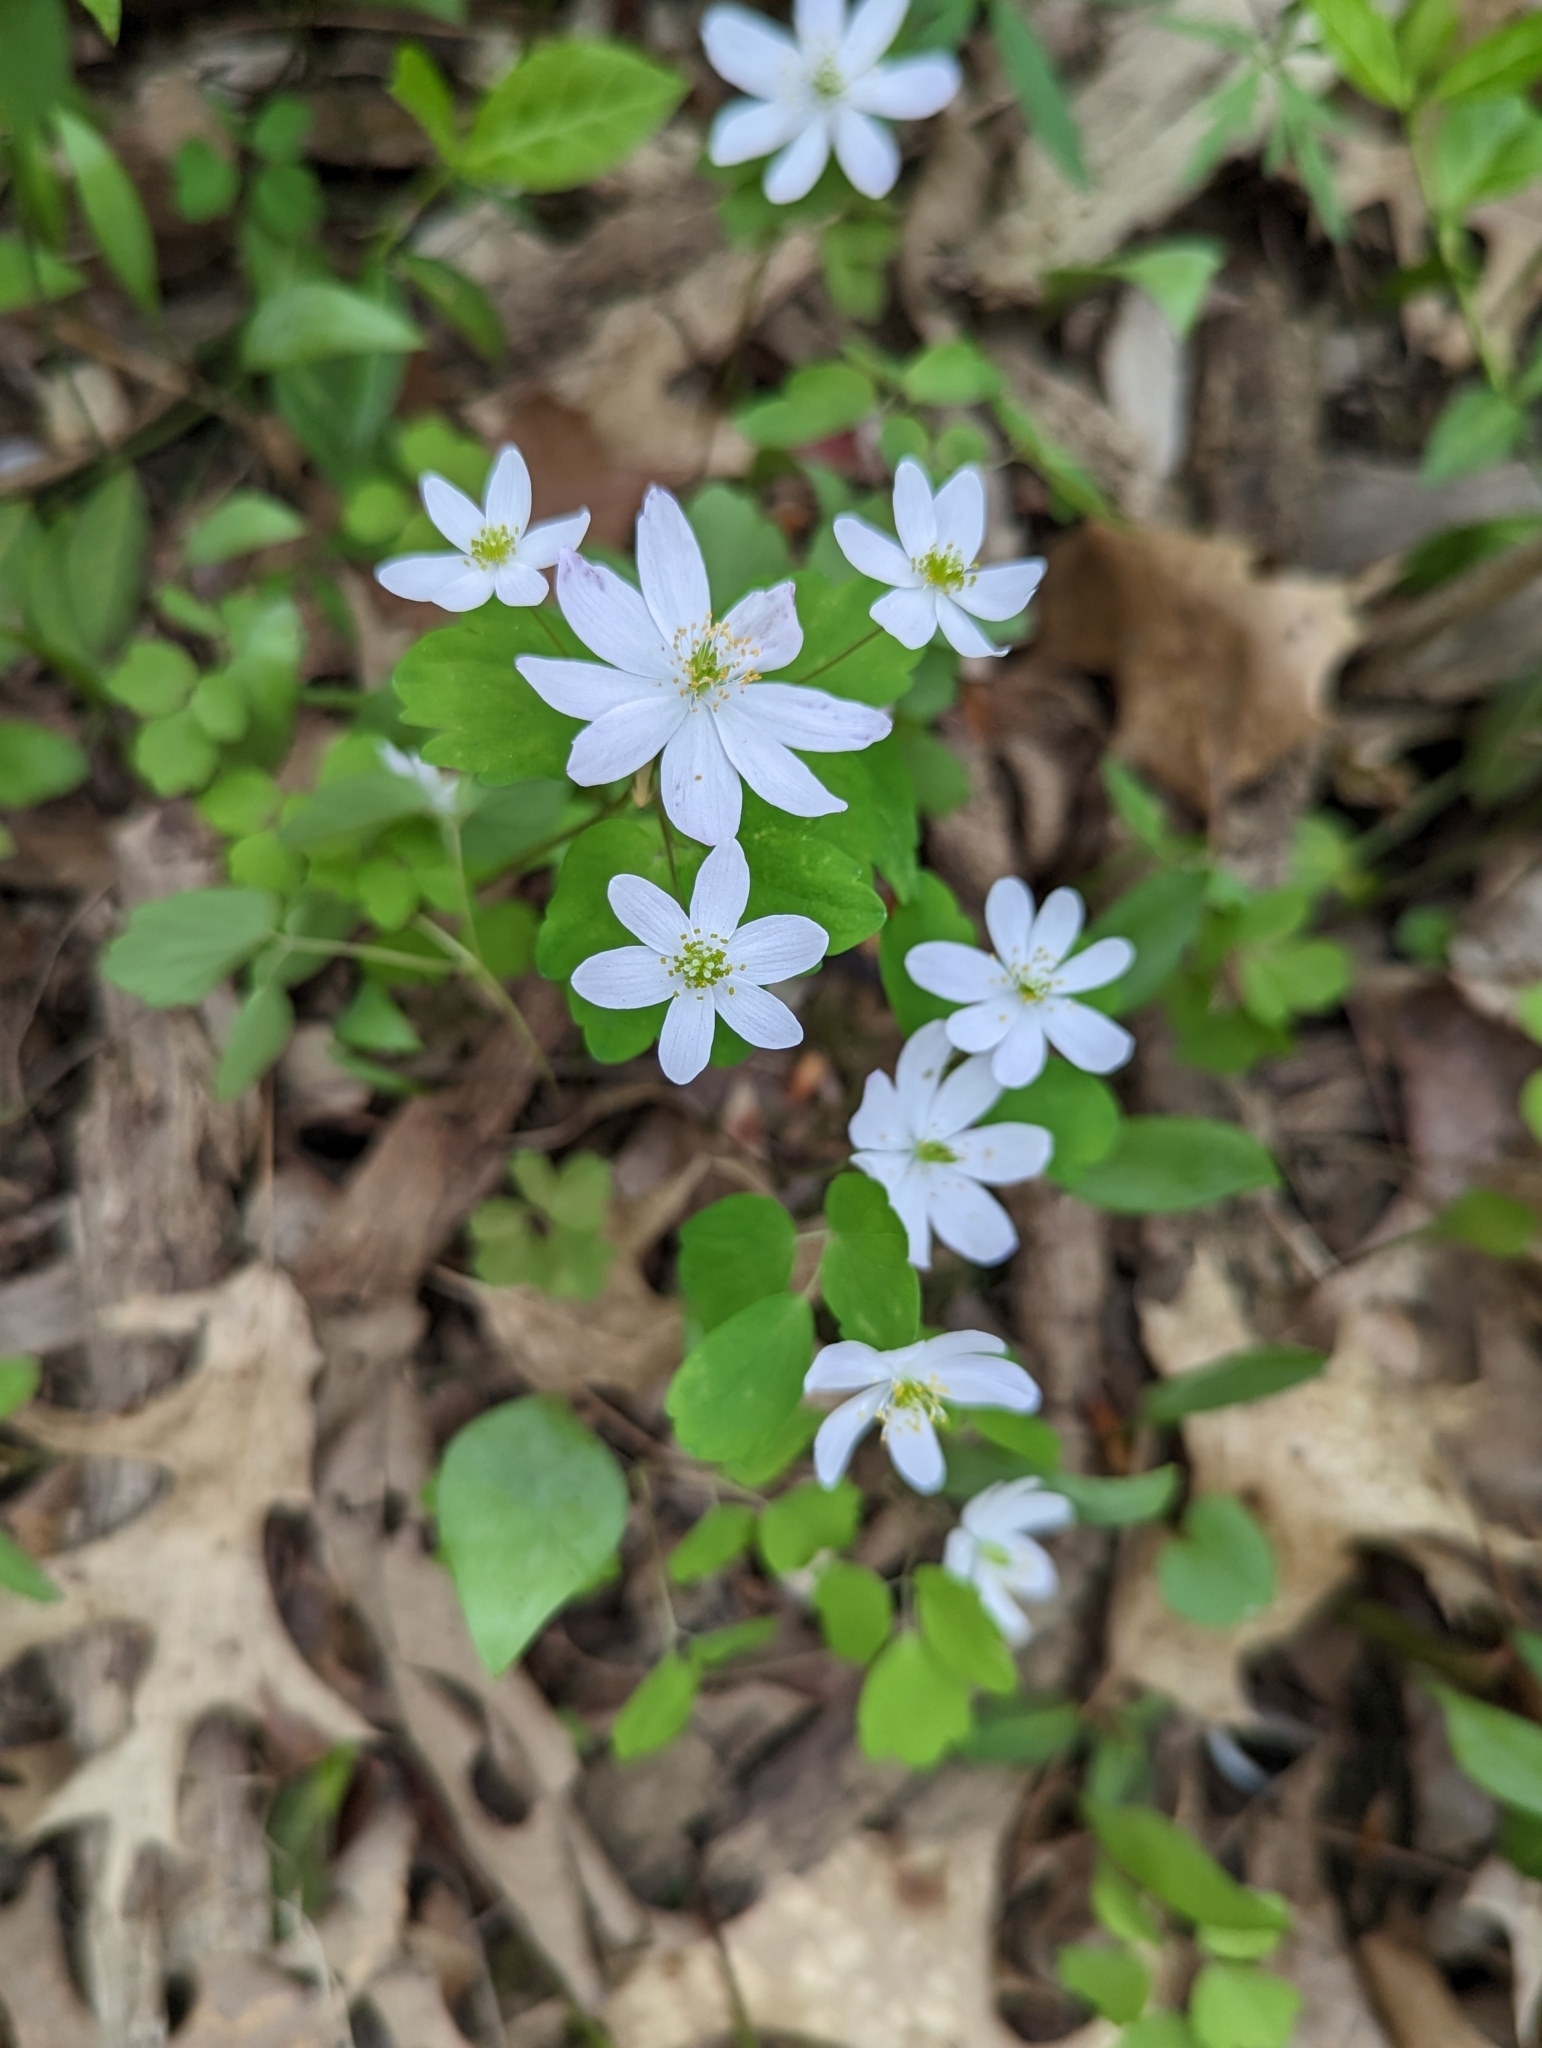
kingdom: Plantae
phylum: Tracheophyta
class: Magnoliopsida
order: Ranunculales
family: Ranunculaceae
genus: Thalictrum
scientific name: Thalictrum thalictroides
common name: Rue-anemone
